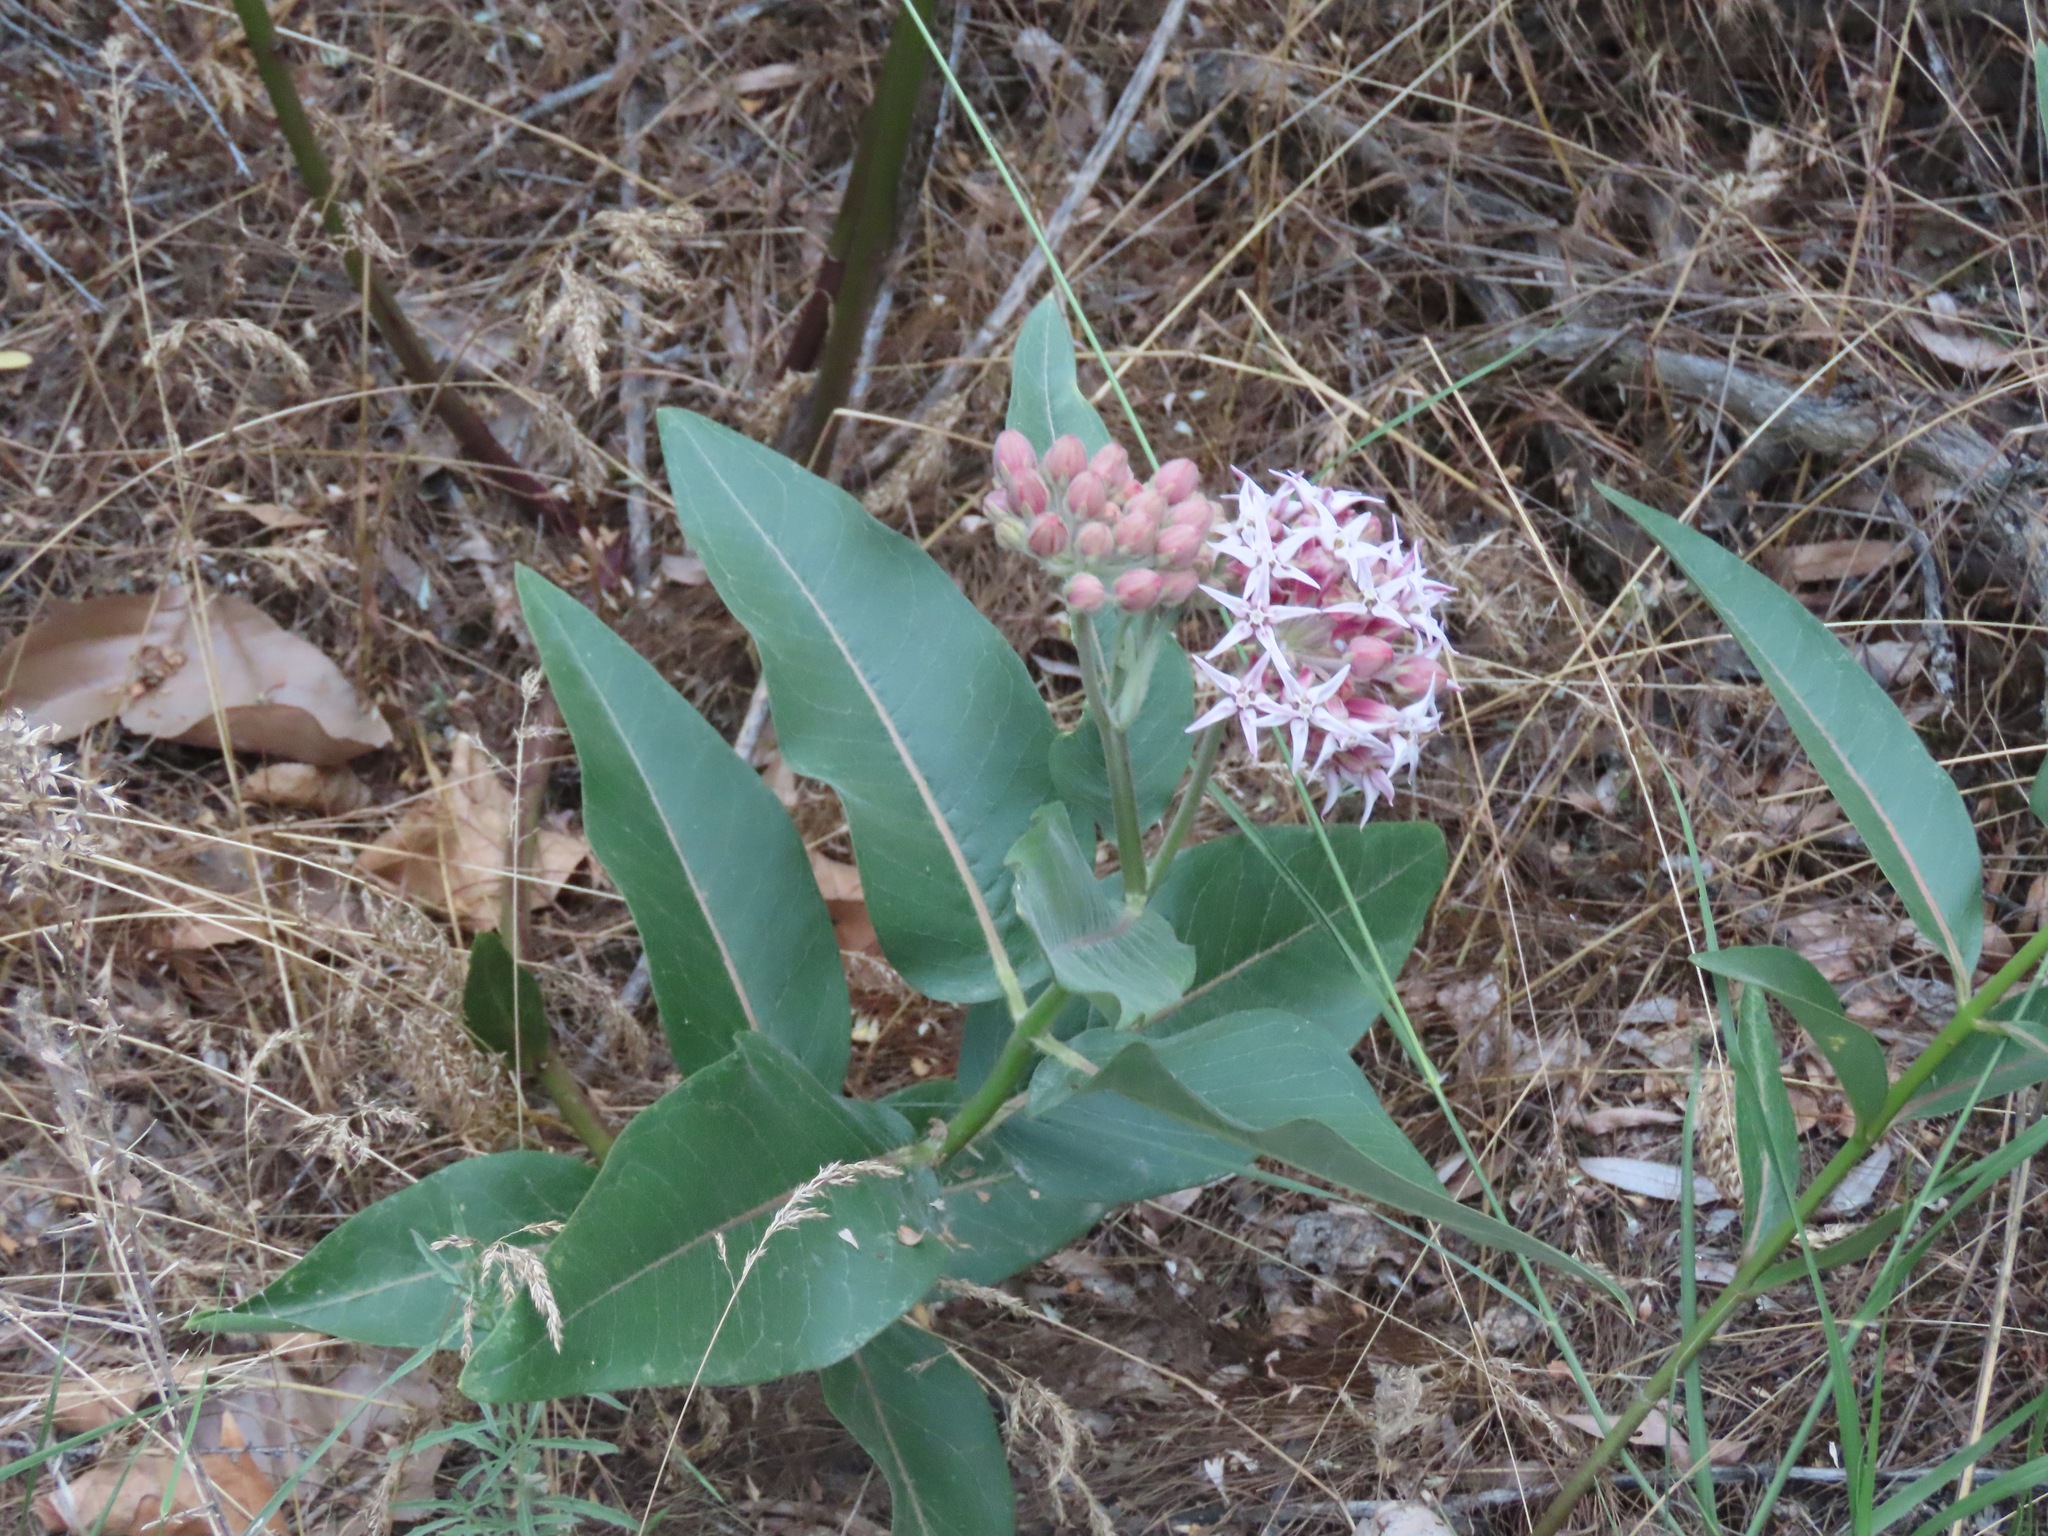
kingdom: Plantae
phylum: Tracheophyta
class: Magnoliopsida
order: Gentianales
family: Apocynaceae
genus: Asclepias
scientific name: Asclepias speciosa
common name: Showy milkweed
